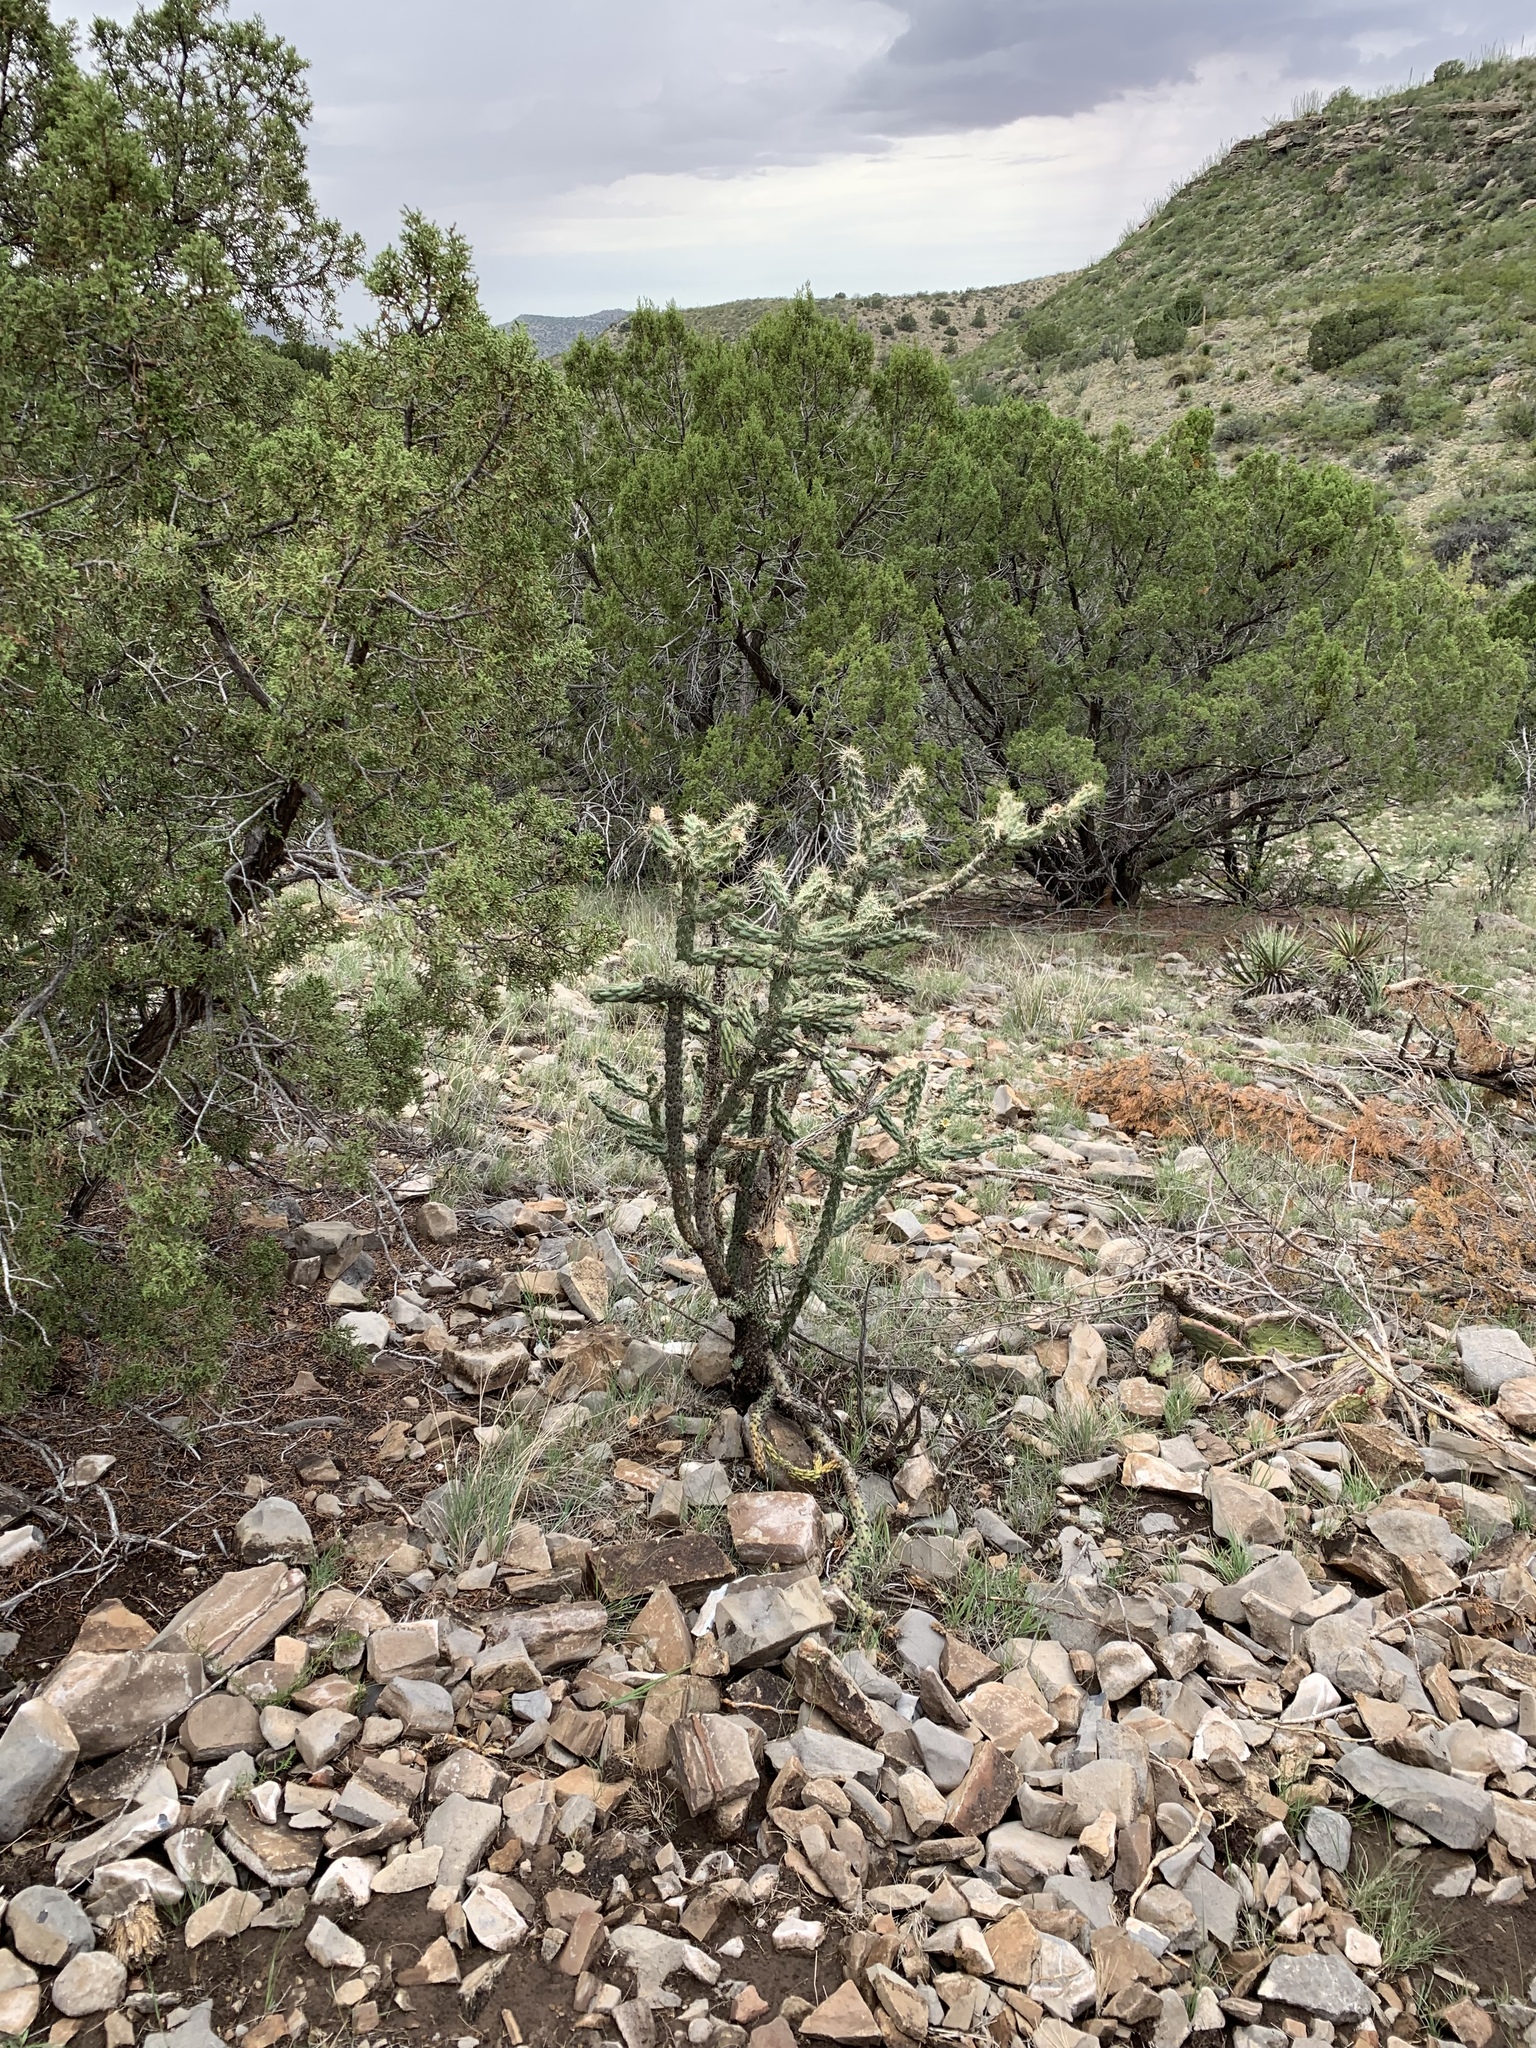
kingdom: Plantae
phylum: Tracheophyta
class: Magnoliopsida
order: Caryophyllales
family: Cactaceae
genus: Cylindropuntia
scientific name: Cylindropuntia imbricata
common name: Candelabrum cactus
